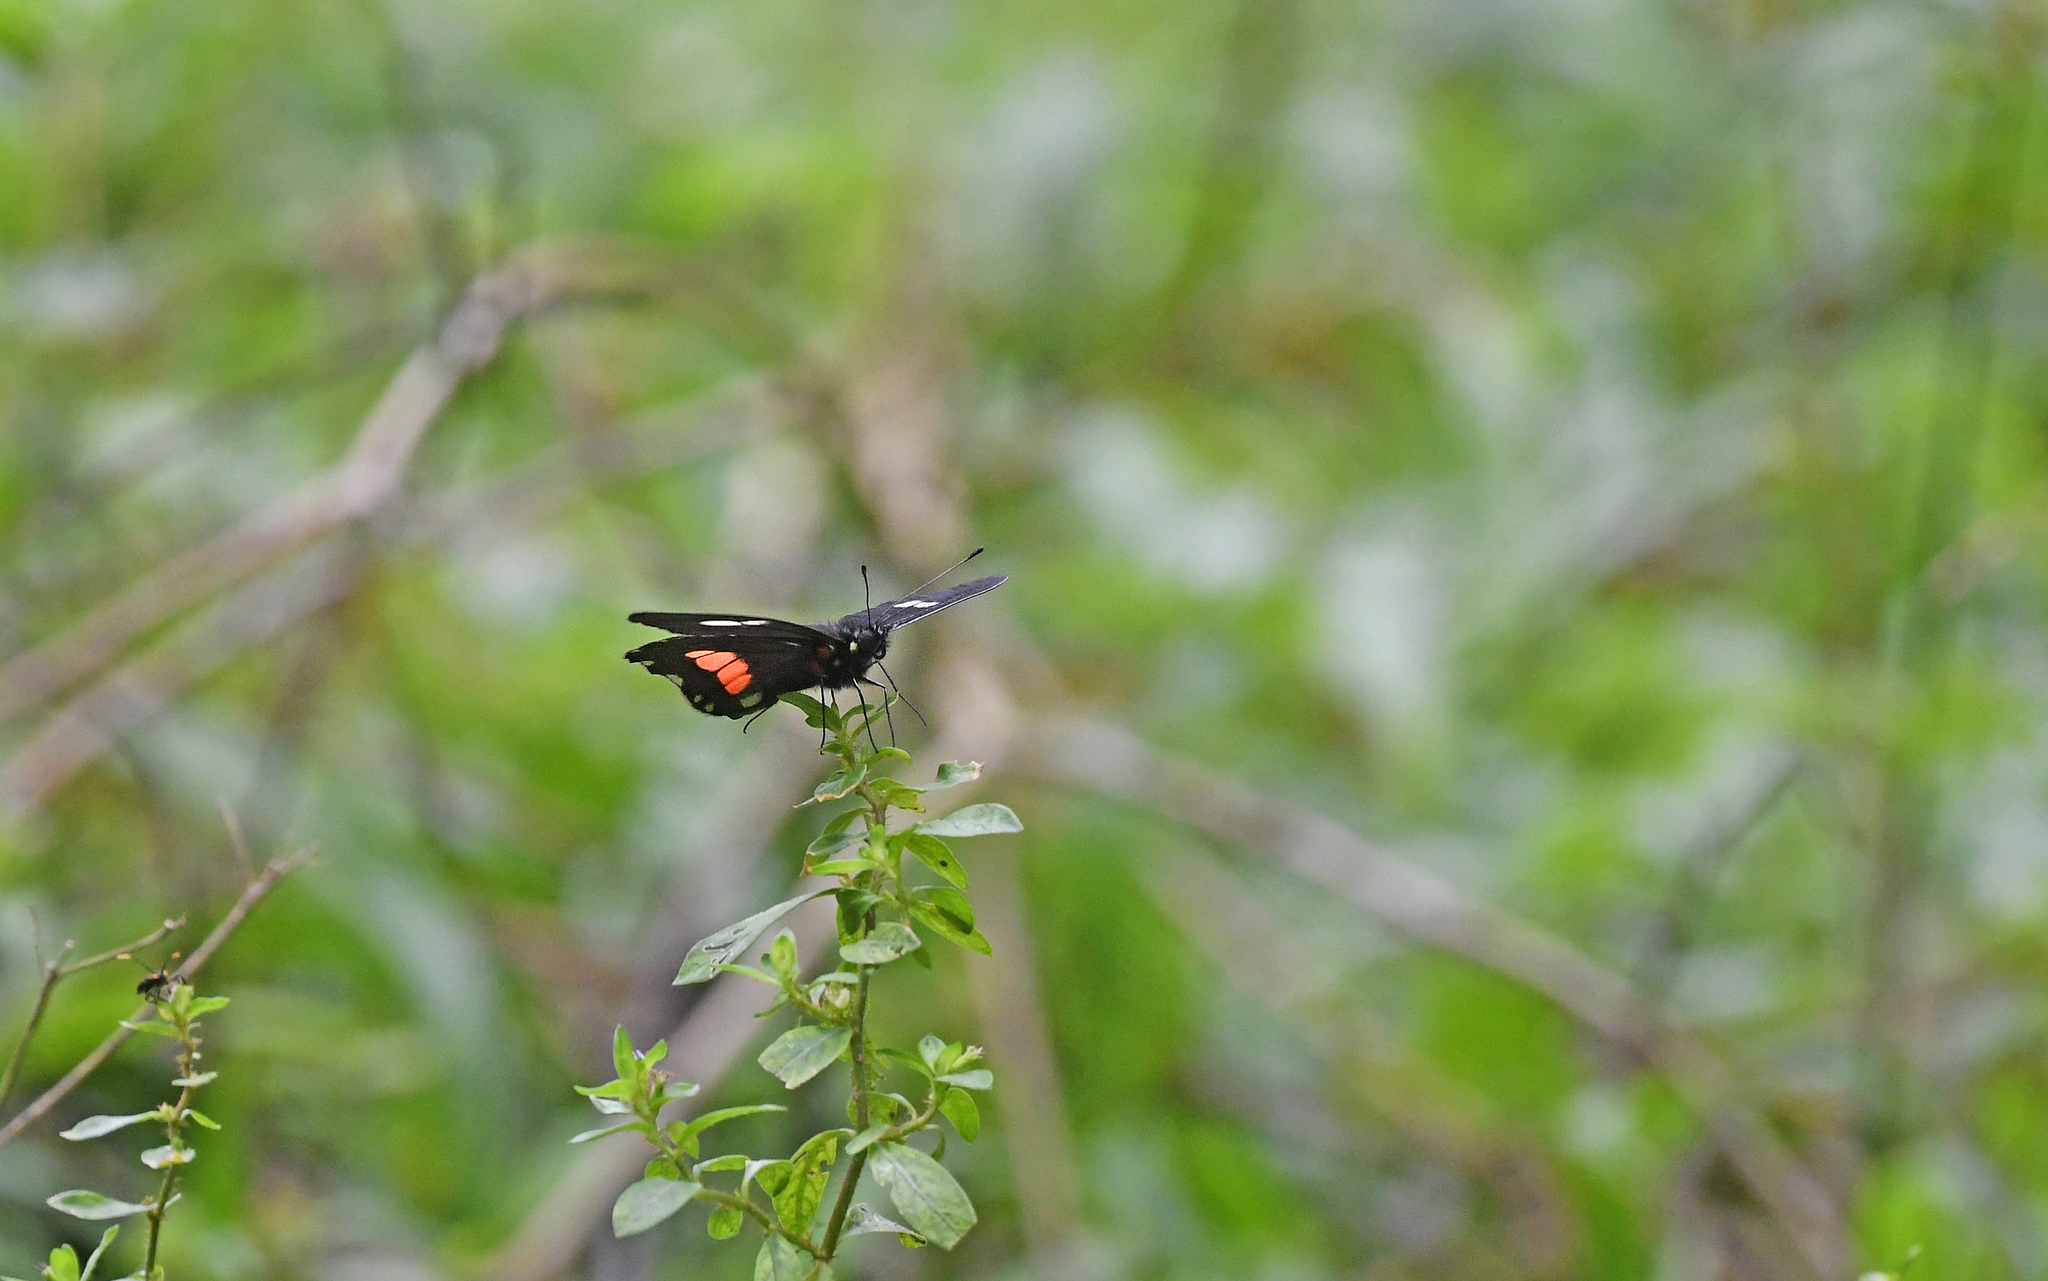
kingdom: Animalia
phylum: Arthropoda
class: Insecta
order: Lepidoptera
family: Pieridae
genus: Archonias
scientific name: Archonias brassolis
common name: Cattleheart white
